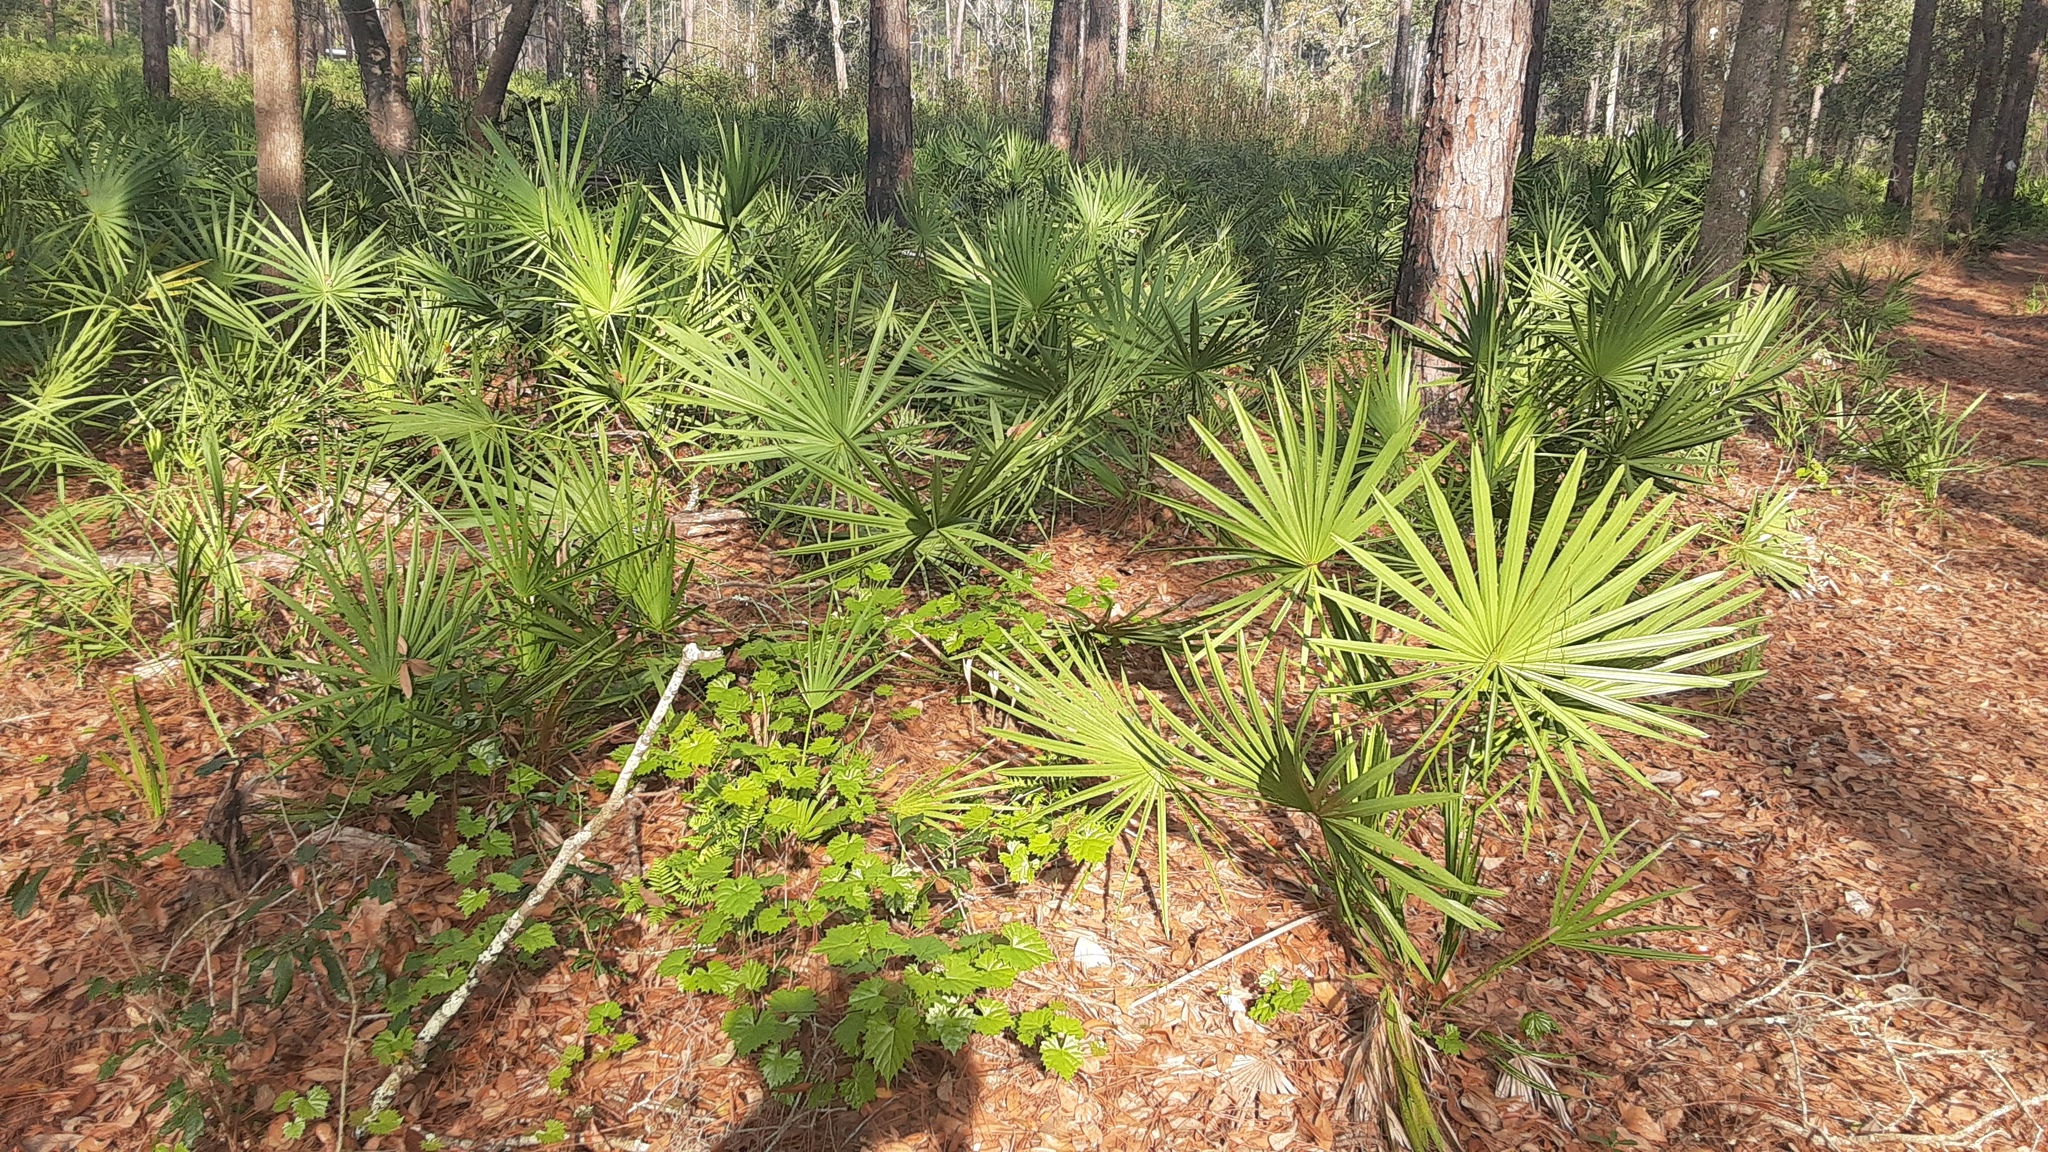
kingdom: Plantae
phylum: Tracheophyta
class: Liliopsida
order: Arecales
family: Arecaceae
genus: Serenoa
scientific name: Serenoa repens
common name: Saw-palmetto
